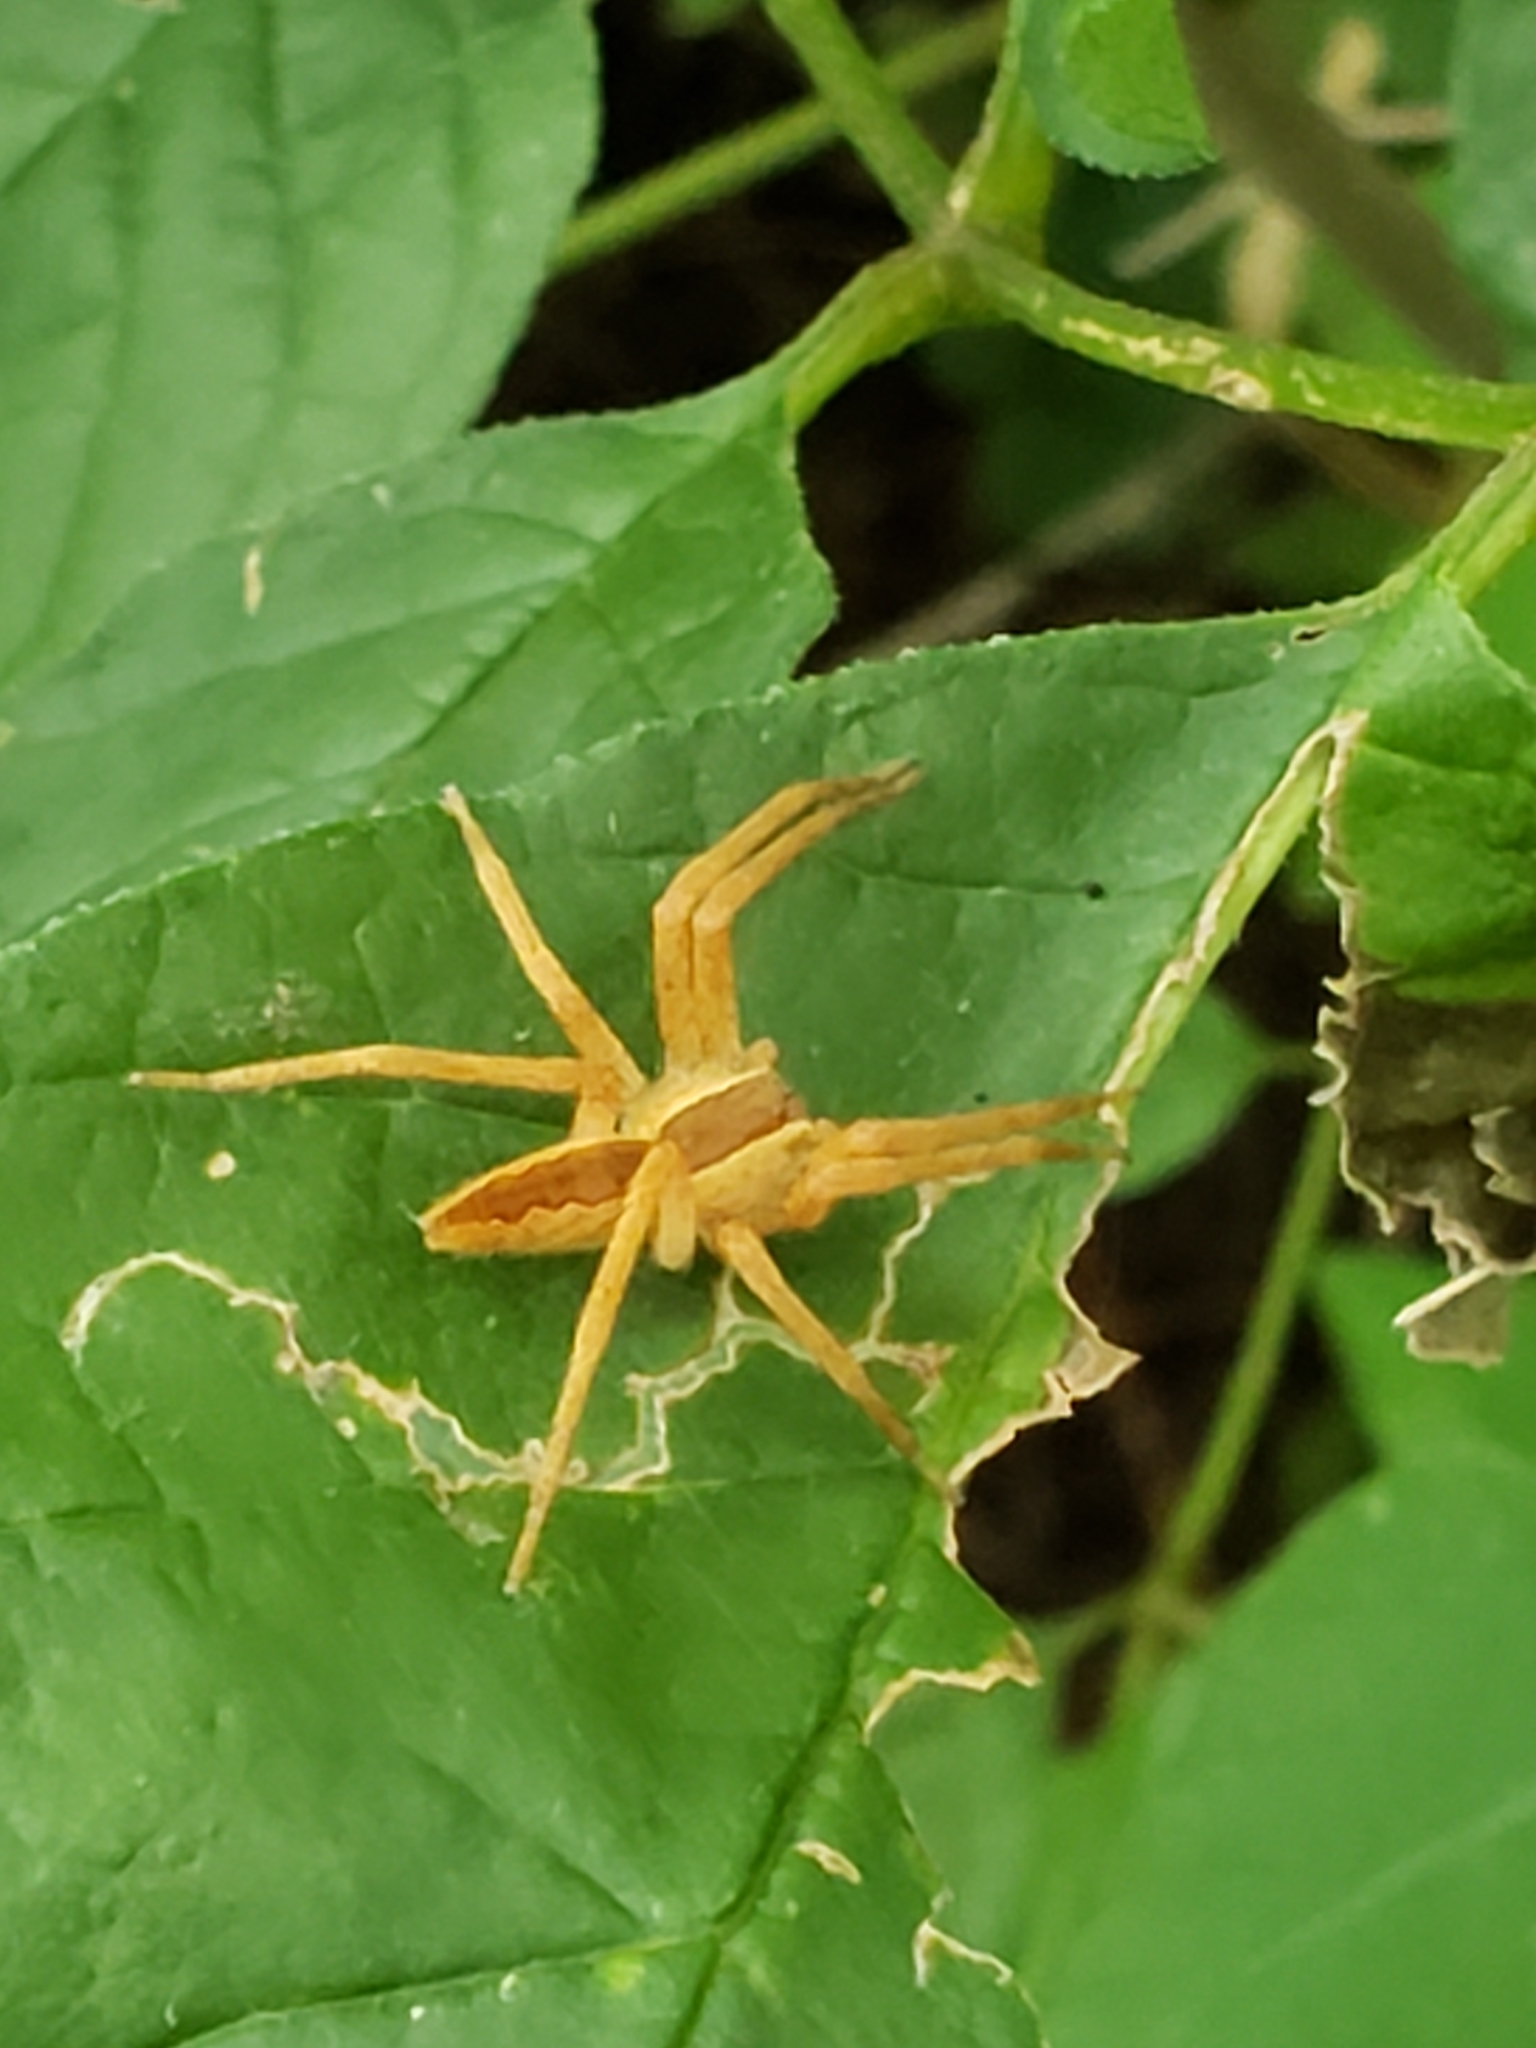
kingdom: Animalia
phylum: Arthropoda
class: Arachnida
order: Araneae
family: Pisauridae
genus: Pisaurina
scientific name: Pisaurina mira
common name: American nursery web spider
